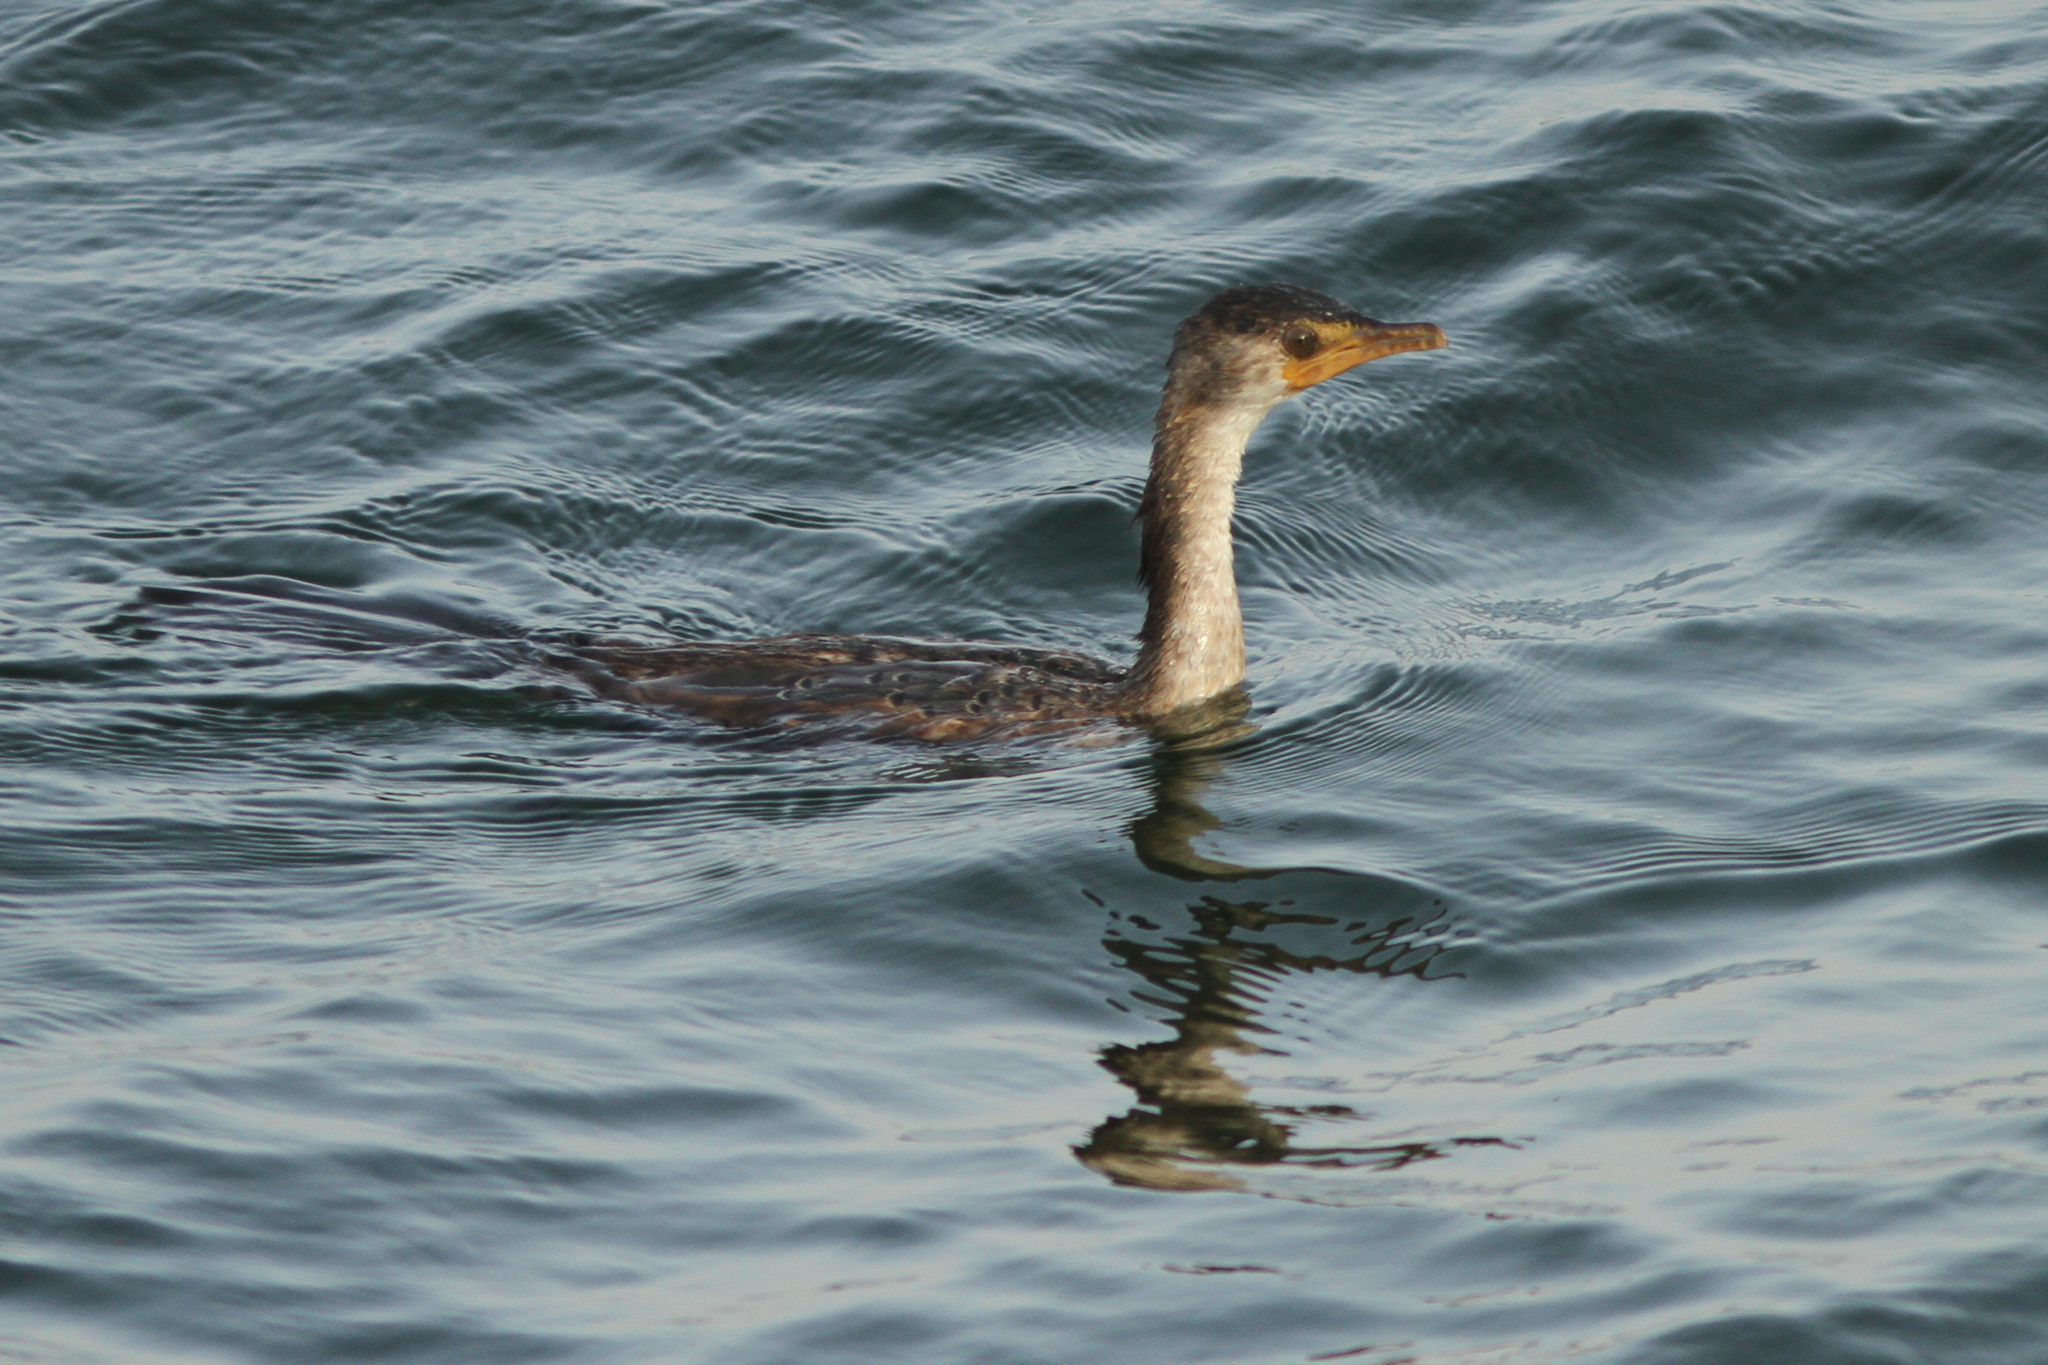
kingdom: Animalia
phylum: Chordata
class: Aves
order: Suliformes
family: Phalacrocoracidae
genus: Microcarbo
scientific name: Microcarbo africanus
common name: Long-tailed cormorant
